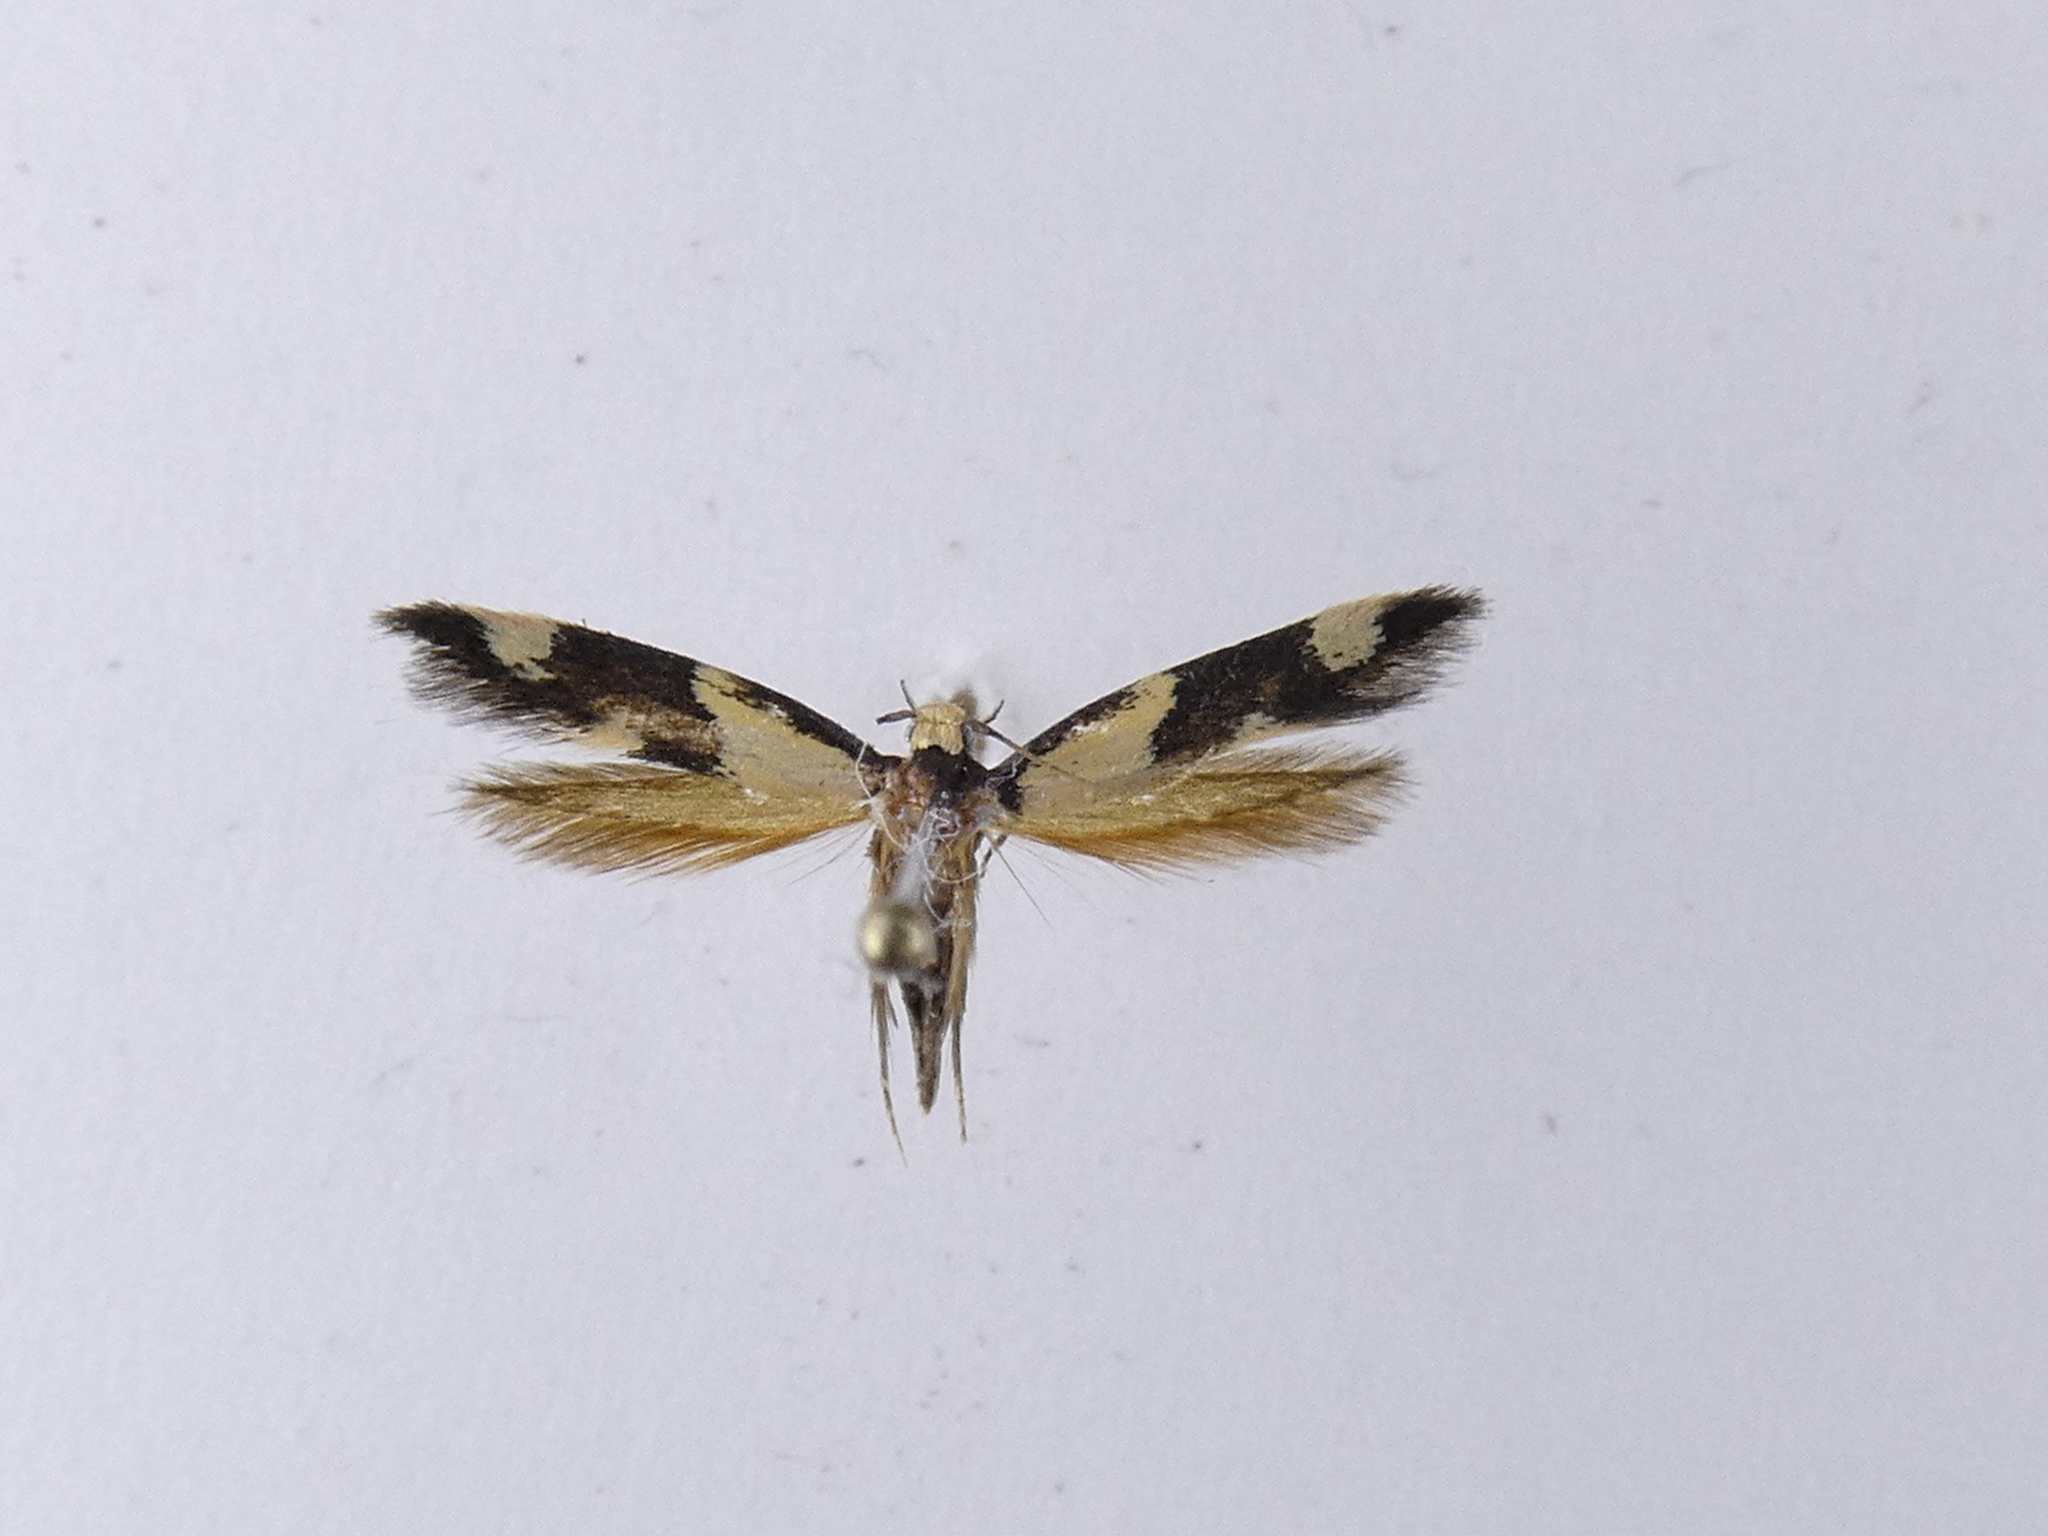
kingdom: Animalia
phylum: Arthropoda
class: Insecta
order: Lepidoptera
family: Tineidae
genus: Opogona
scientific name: Opogona comptella
